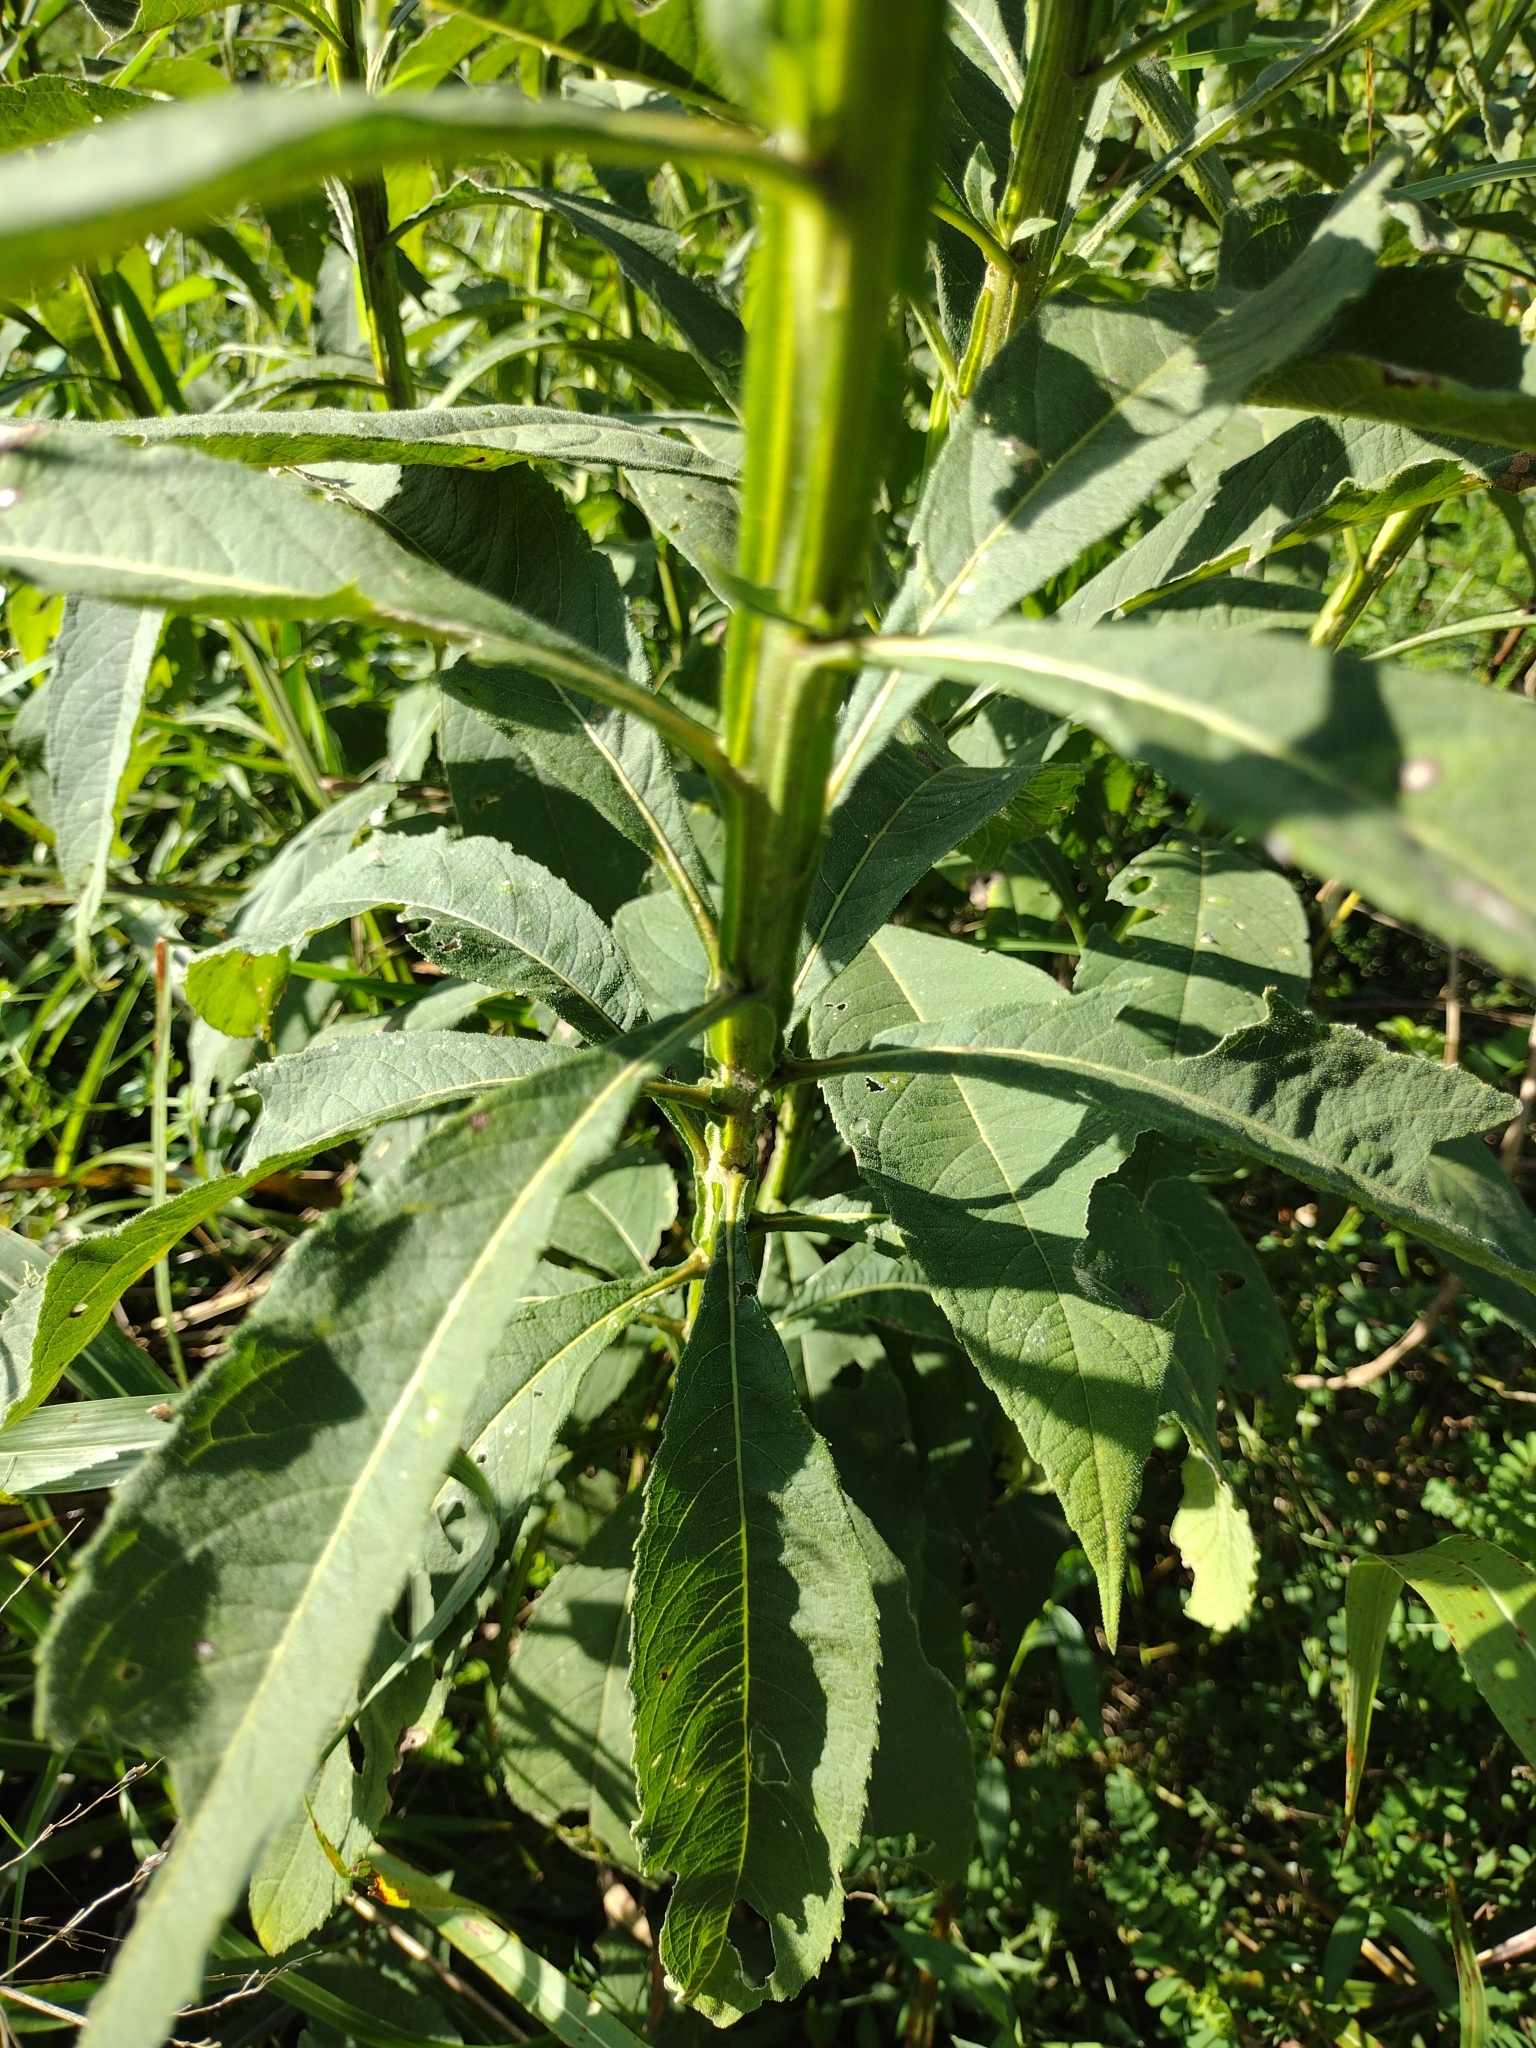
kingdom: Plantae
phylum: Tracheophyta
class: Magnoliopsida
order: Asterales
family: Asteraceae
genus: Verbesina
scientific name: Verbesina alternifolia
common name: Wingstem
